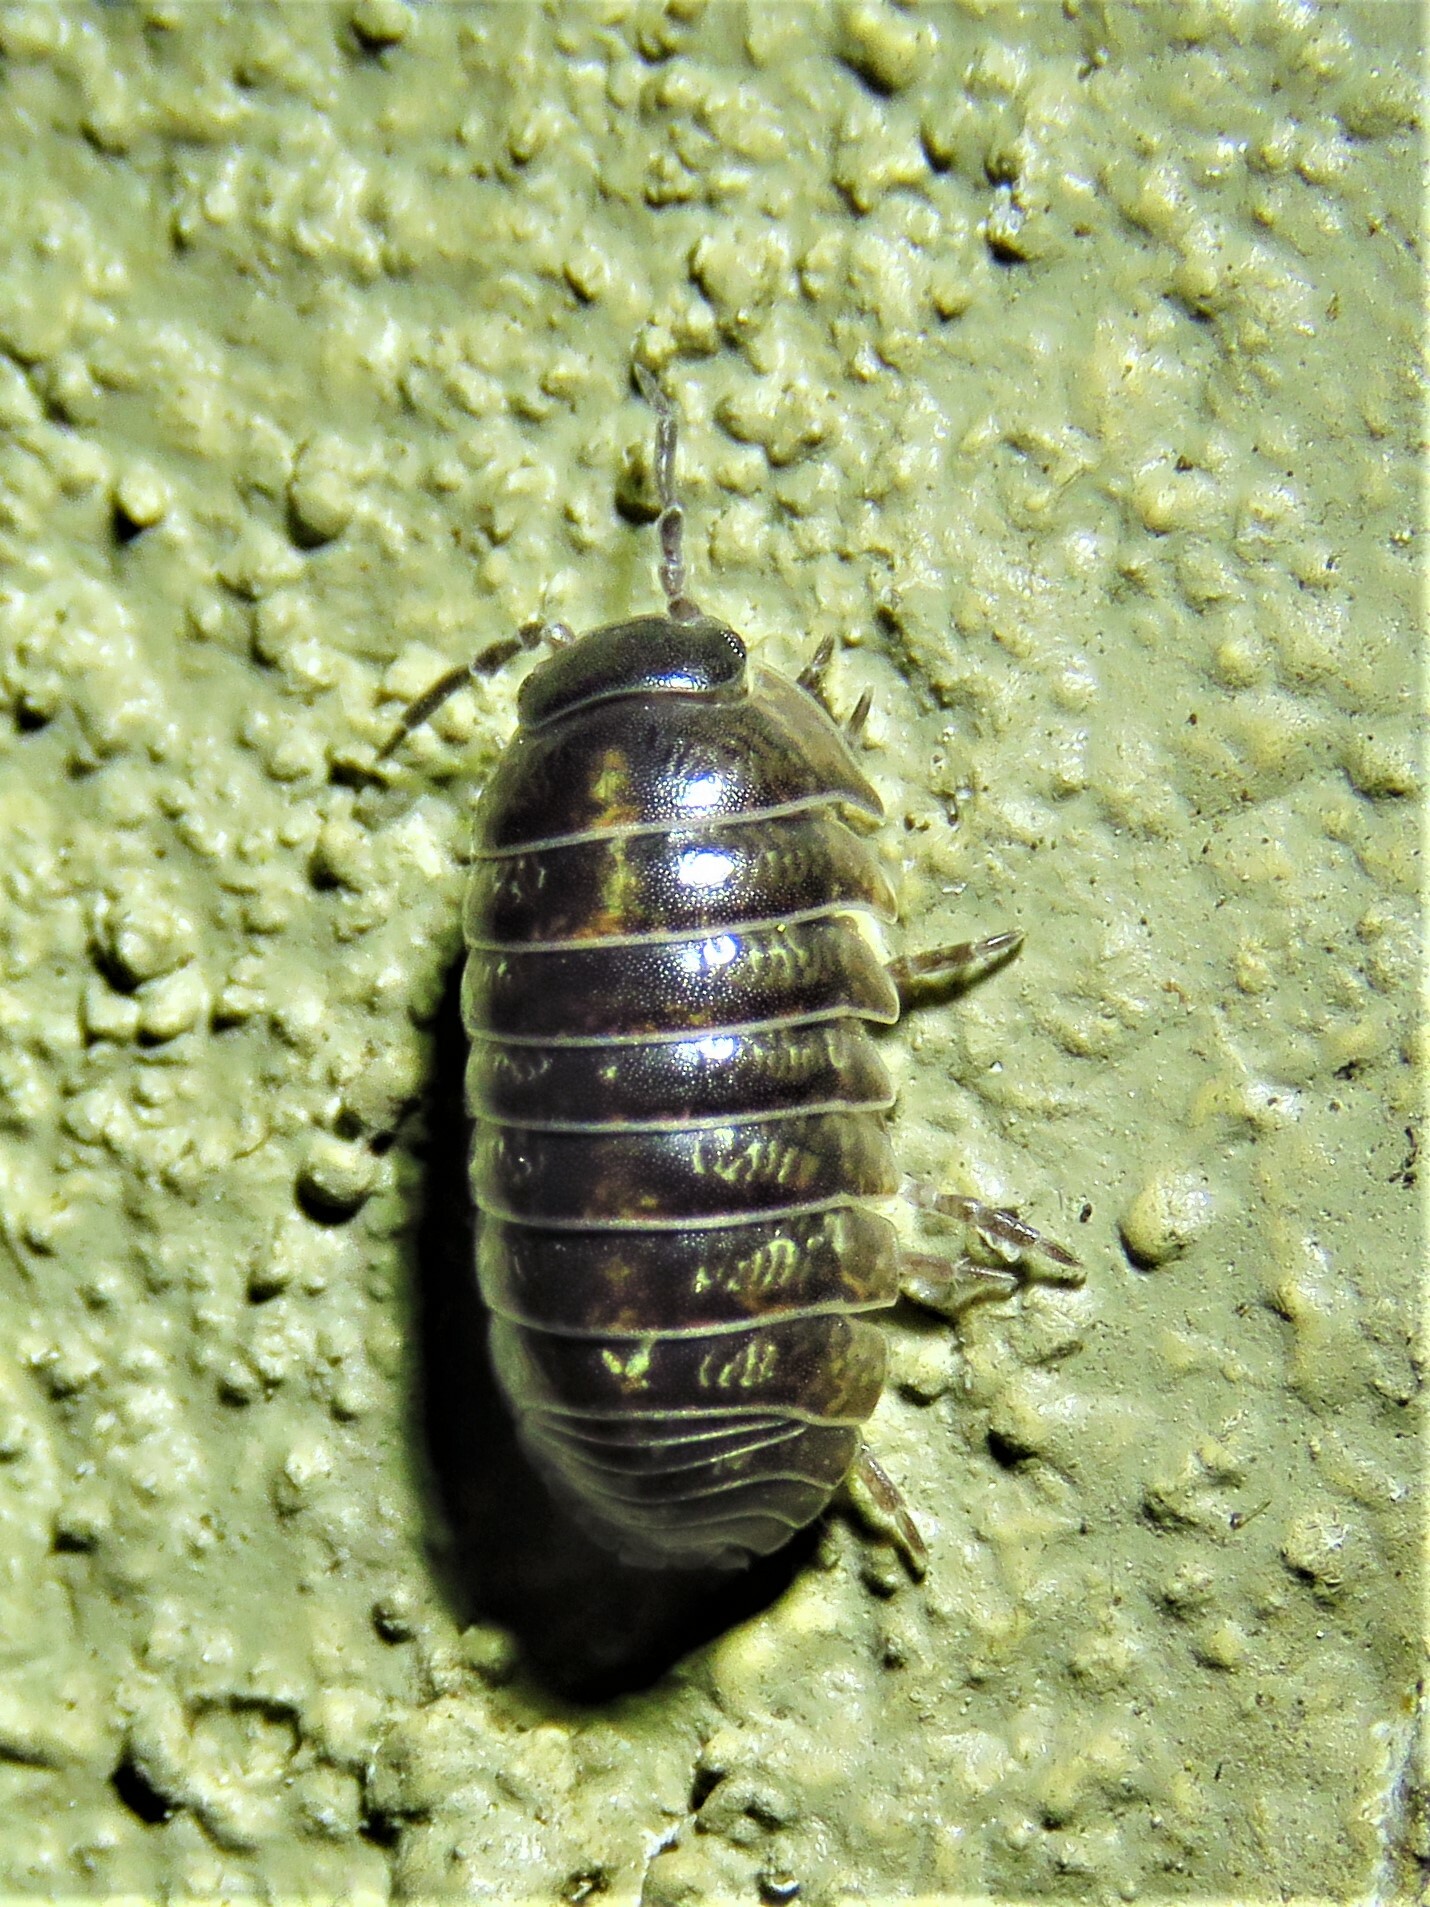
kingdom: Animalia
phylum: Arthropoda
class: Malacostraca
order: Isopoda
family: Armadillidiidae
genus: Armadillidium
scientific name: Armadillidium vulgare
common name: Common pill woodlouse
